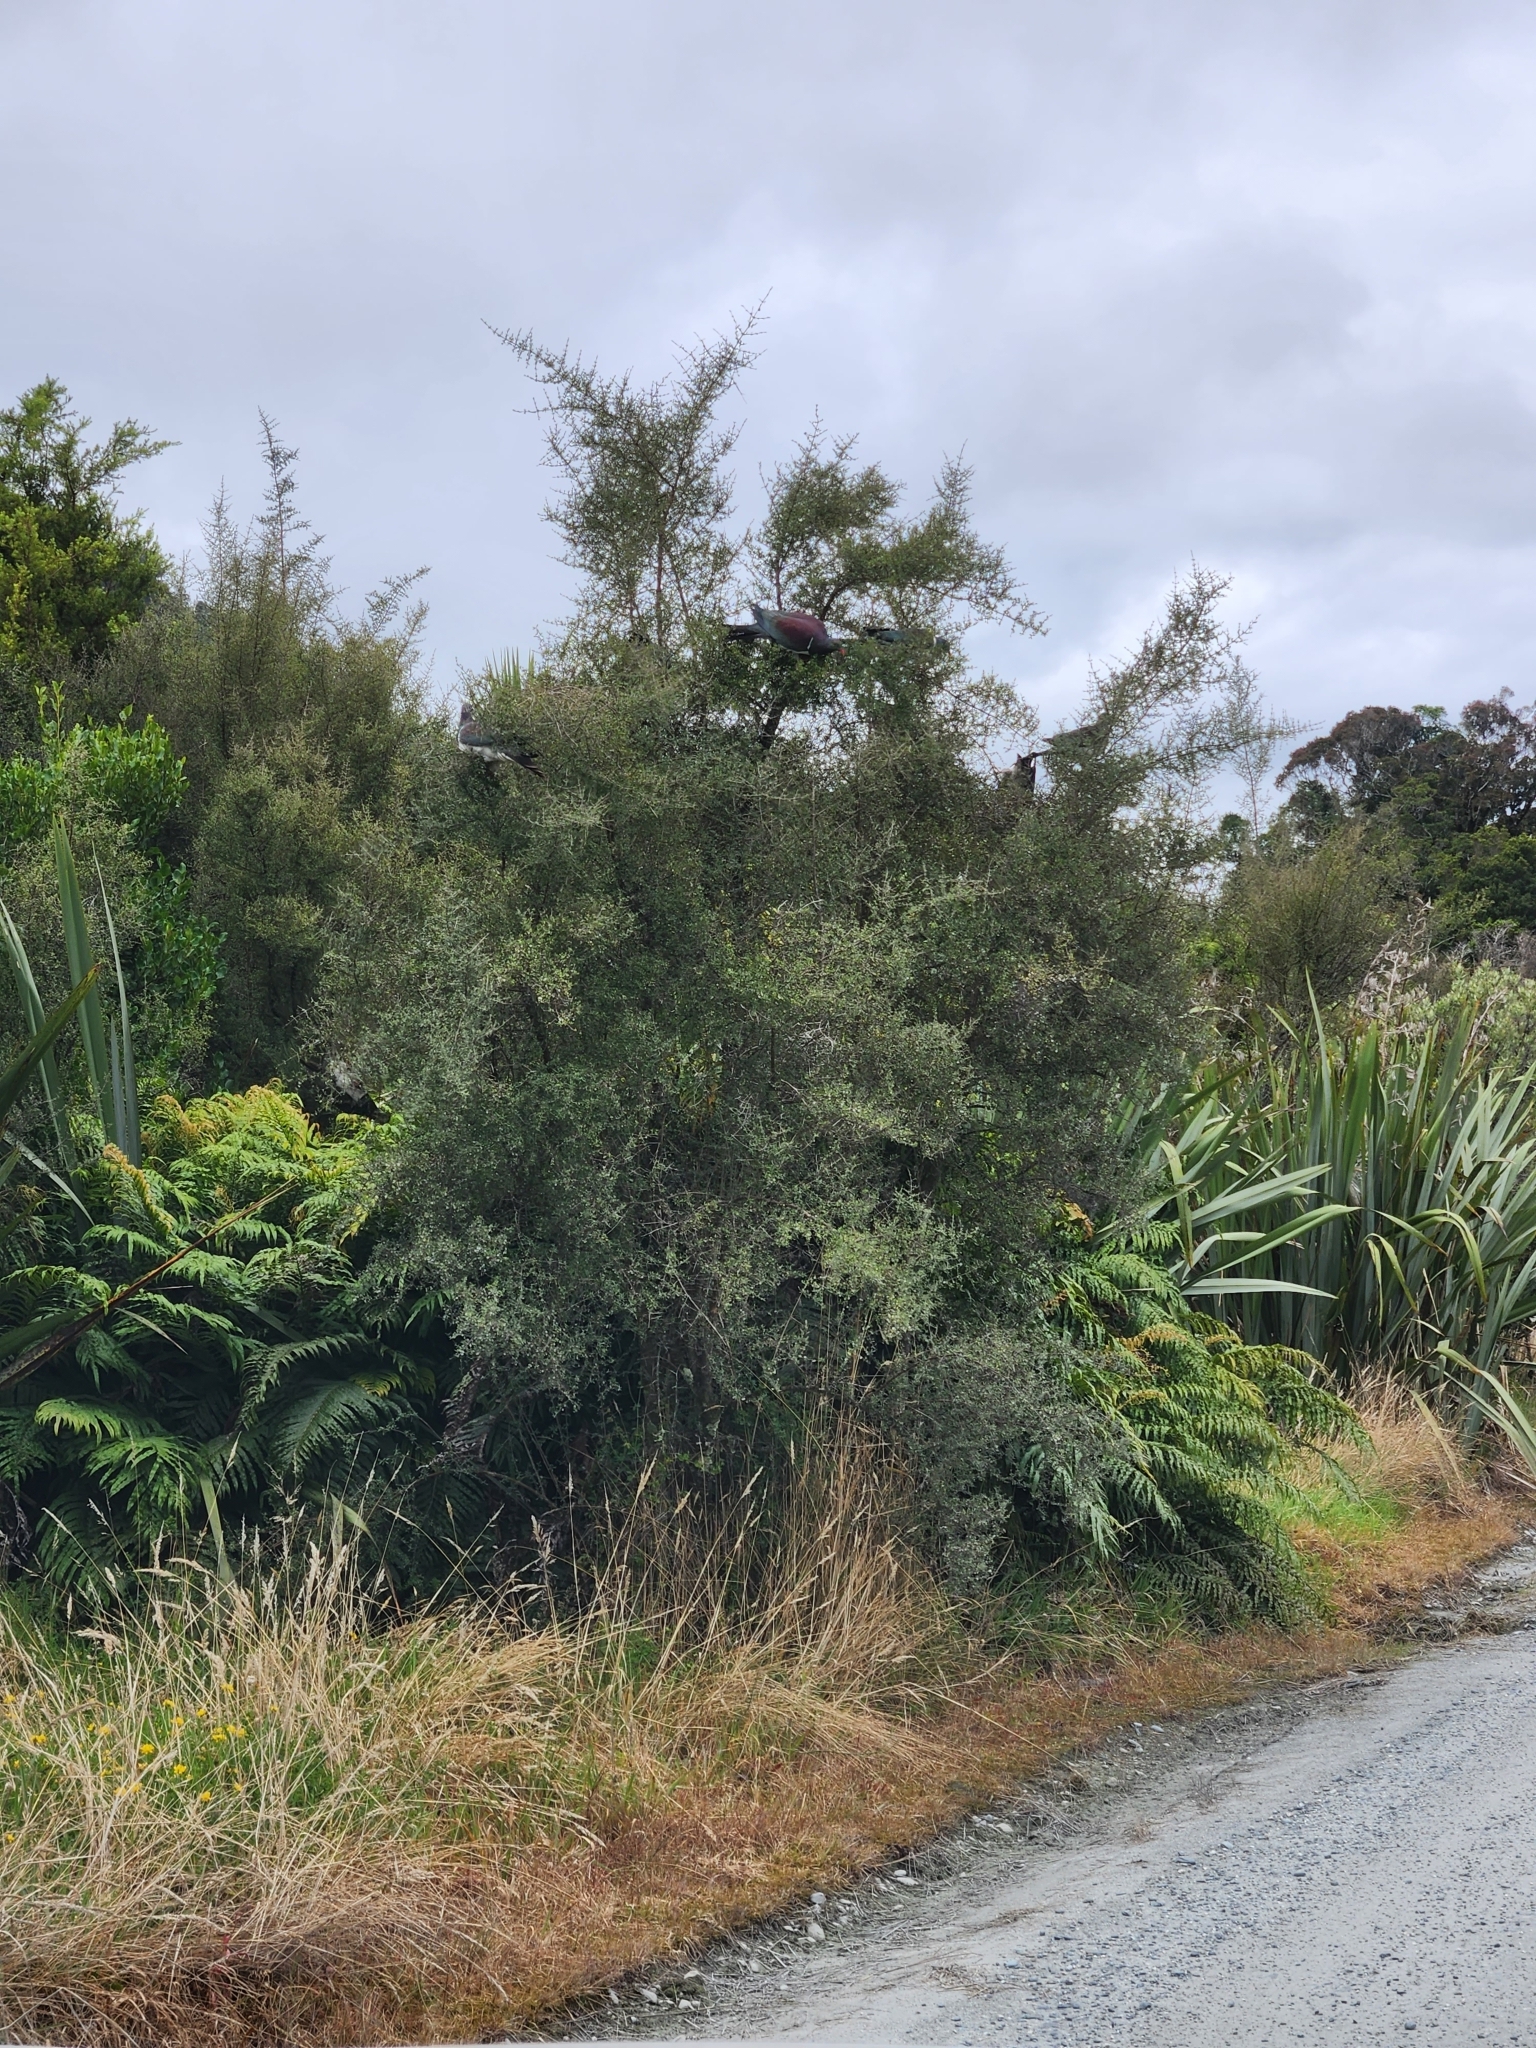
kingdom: Animalia
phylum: Chordata
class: Aves
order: Columbiformes
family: Columbidae
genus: Hemiphaga
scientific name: Hemiphaga novaeseelandiae
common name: New zealand pigeon
